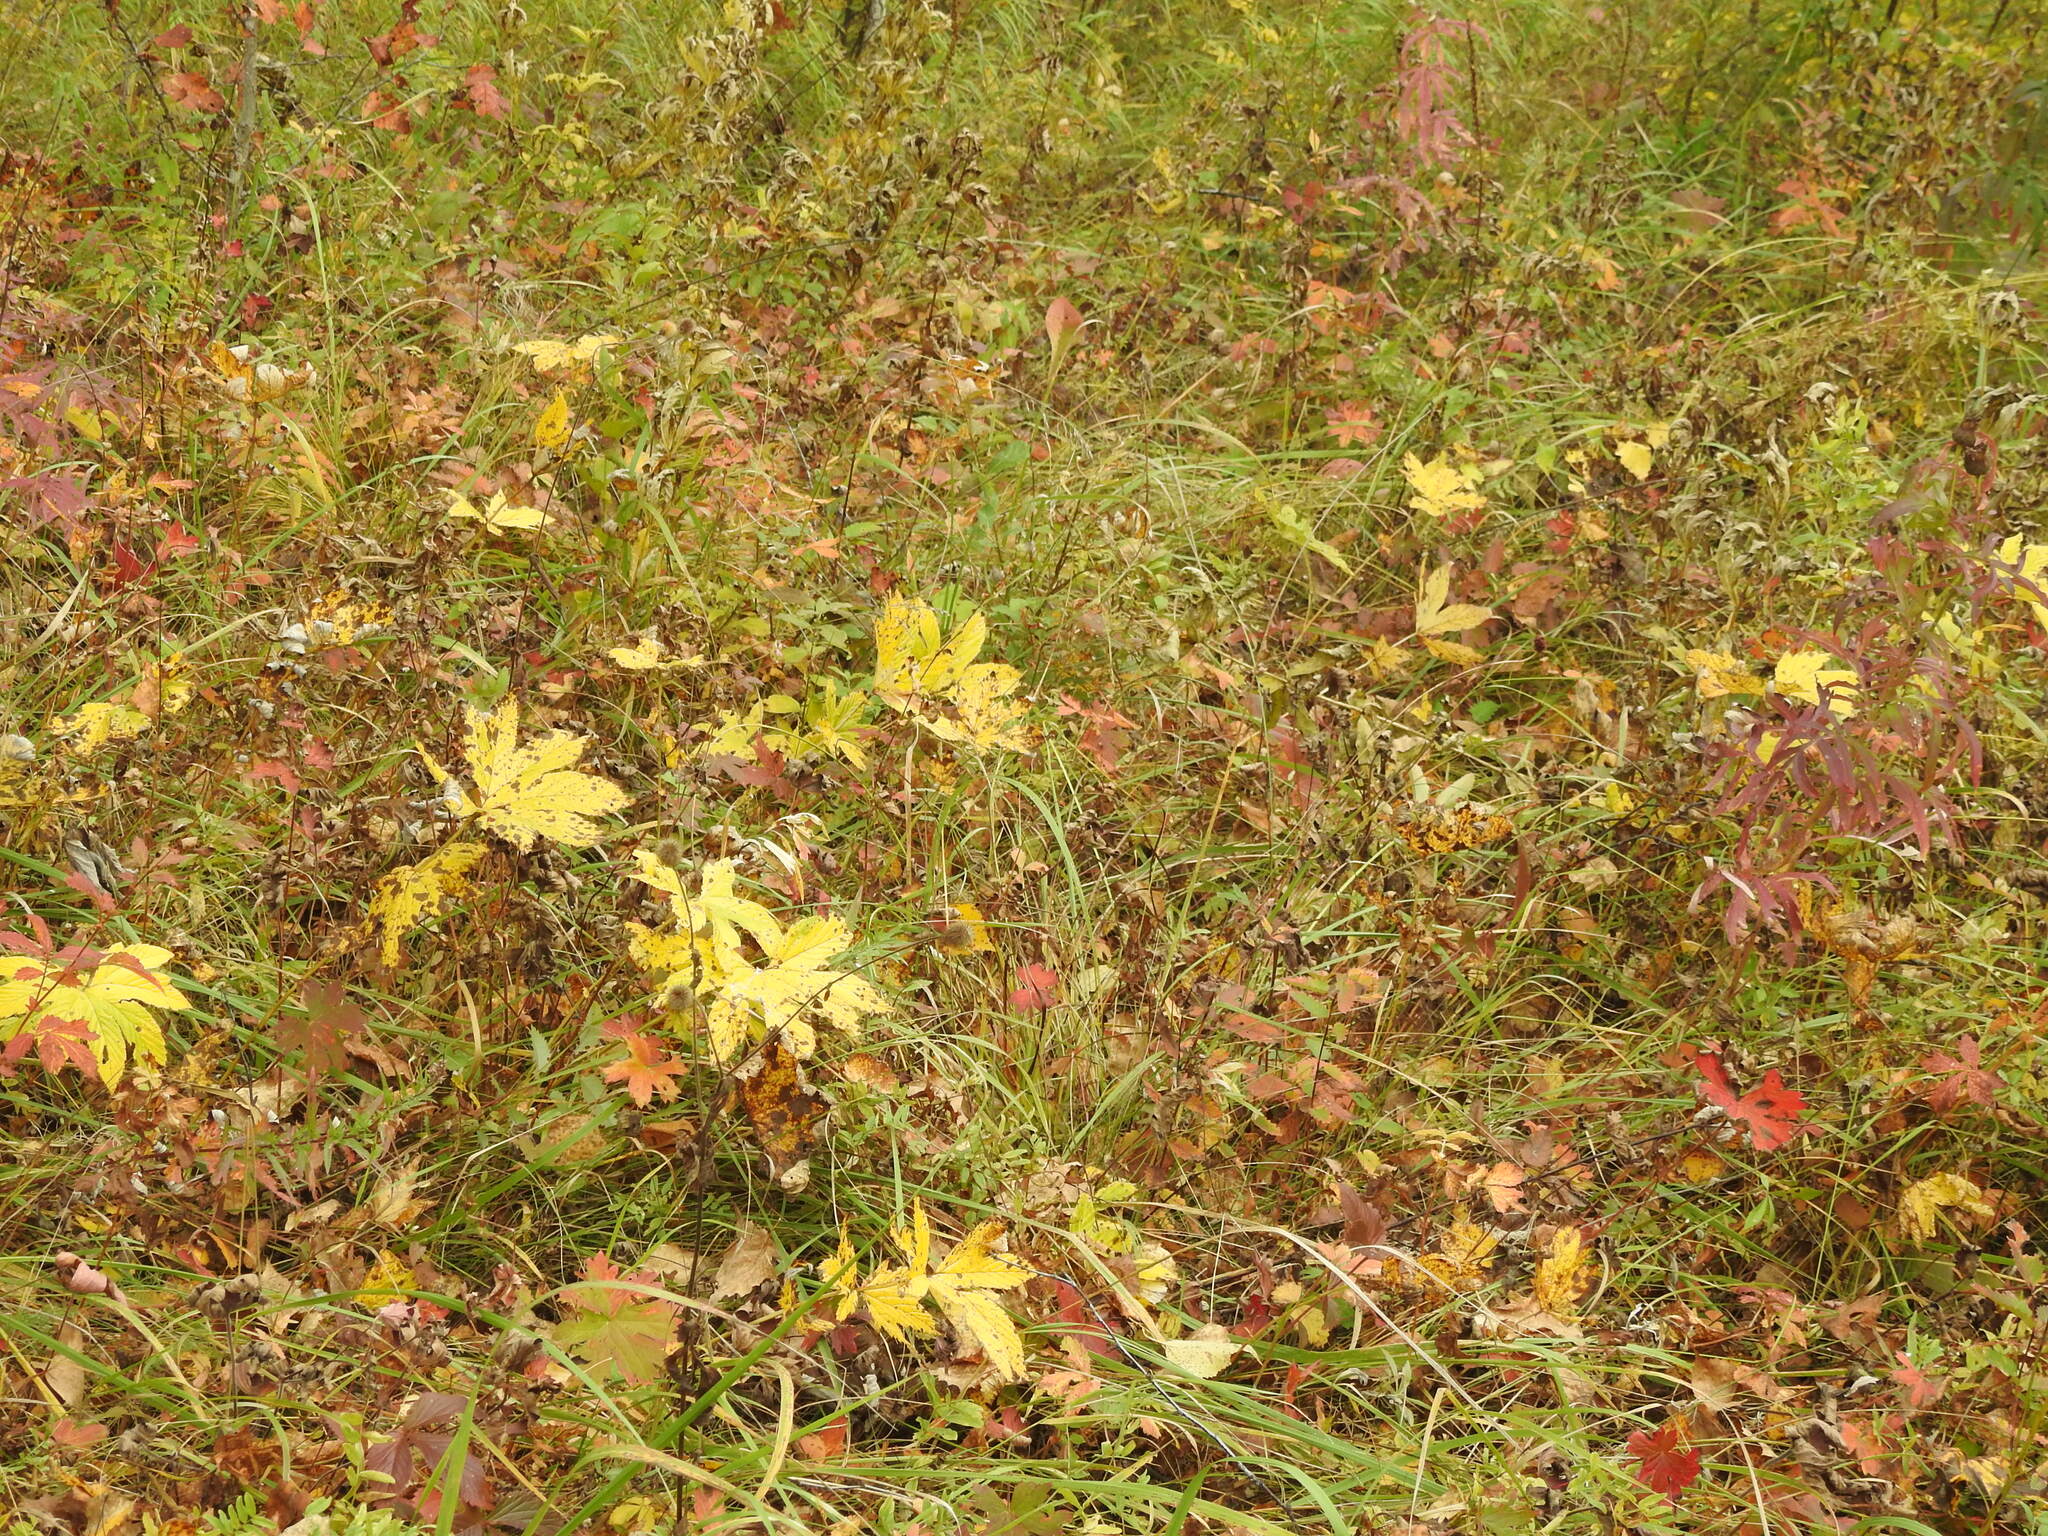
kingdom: Plantae
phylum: Tracheophyta
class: Magnoliopsida
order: Rosales
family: Rosaceae
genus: Filipendula
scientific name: Filipendula digitata
